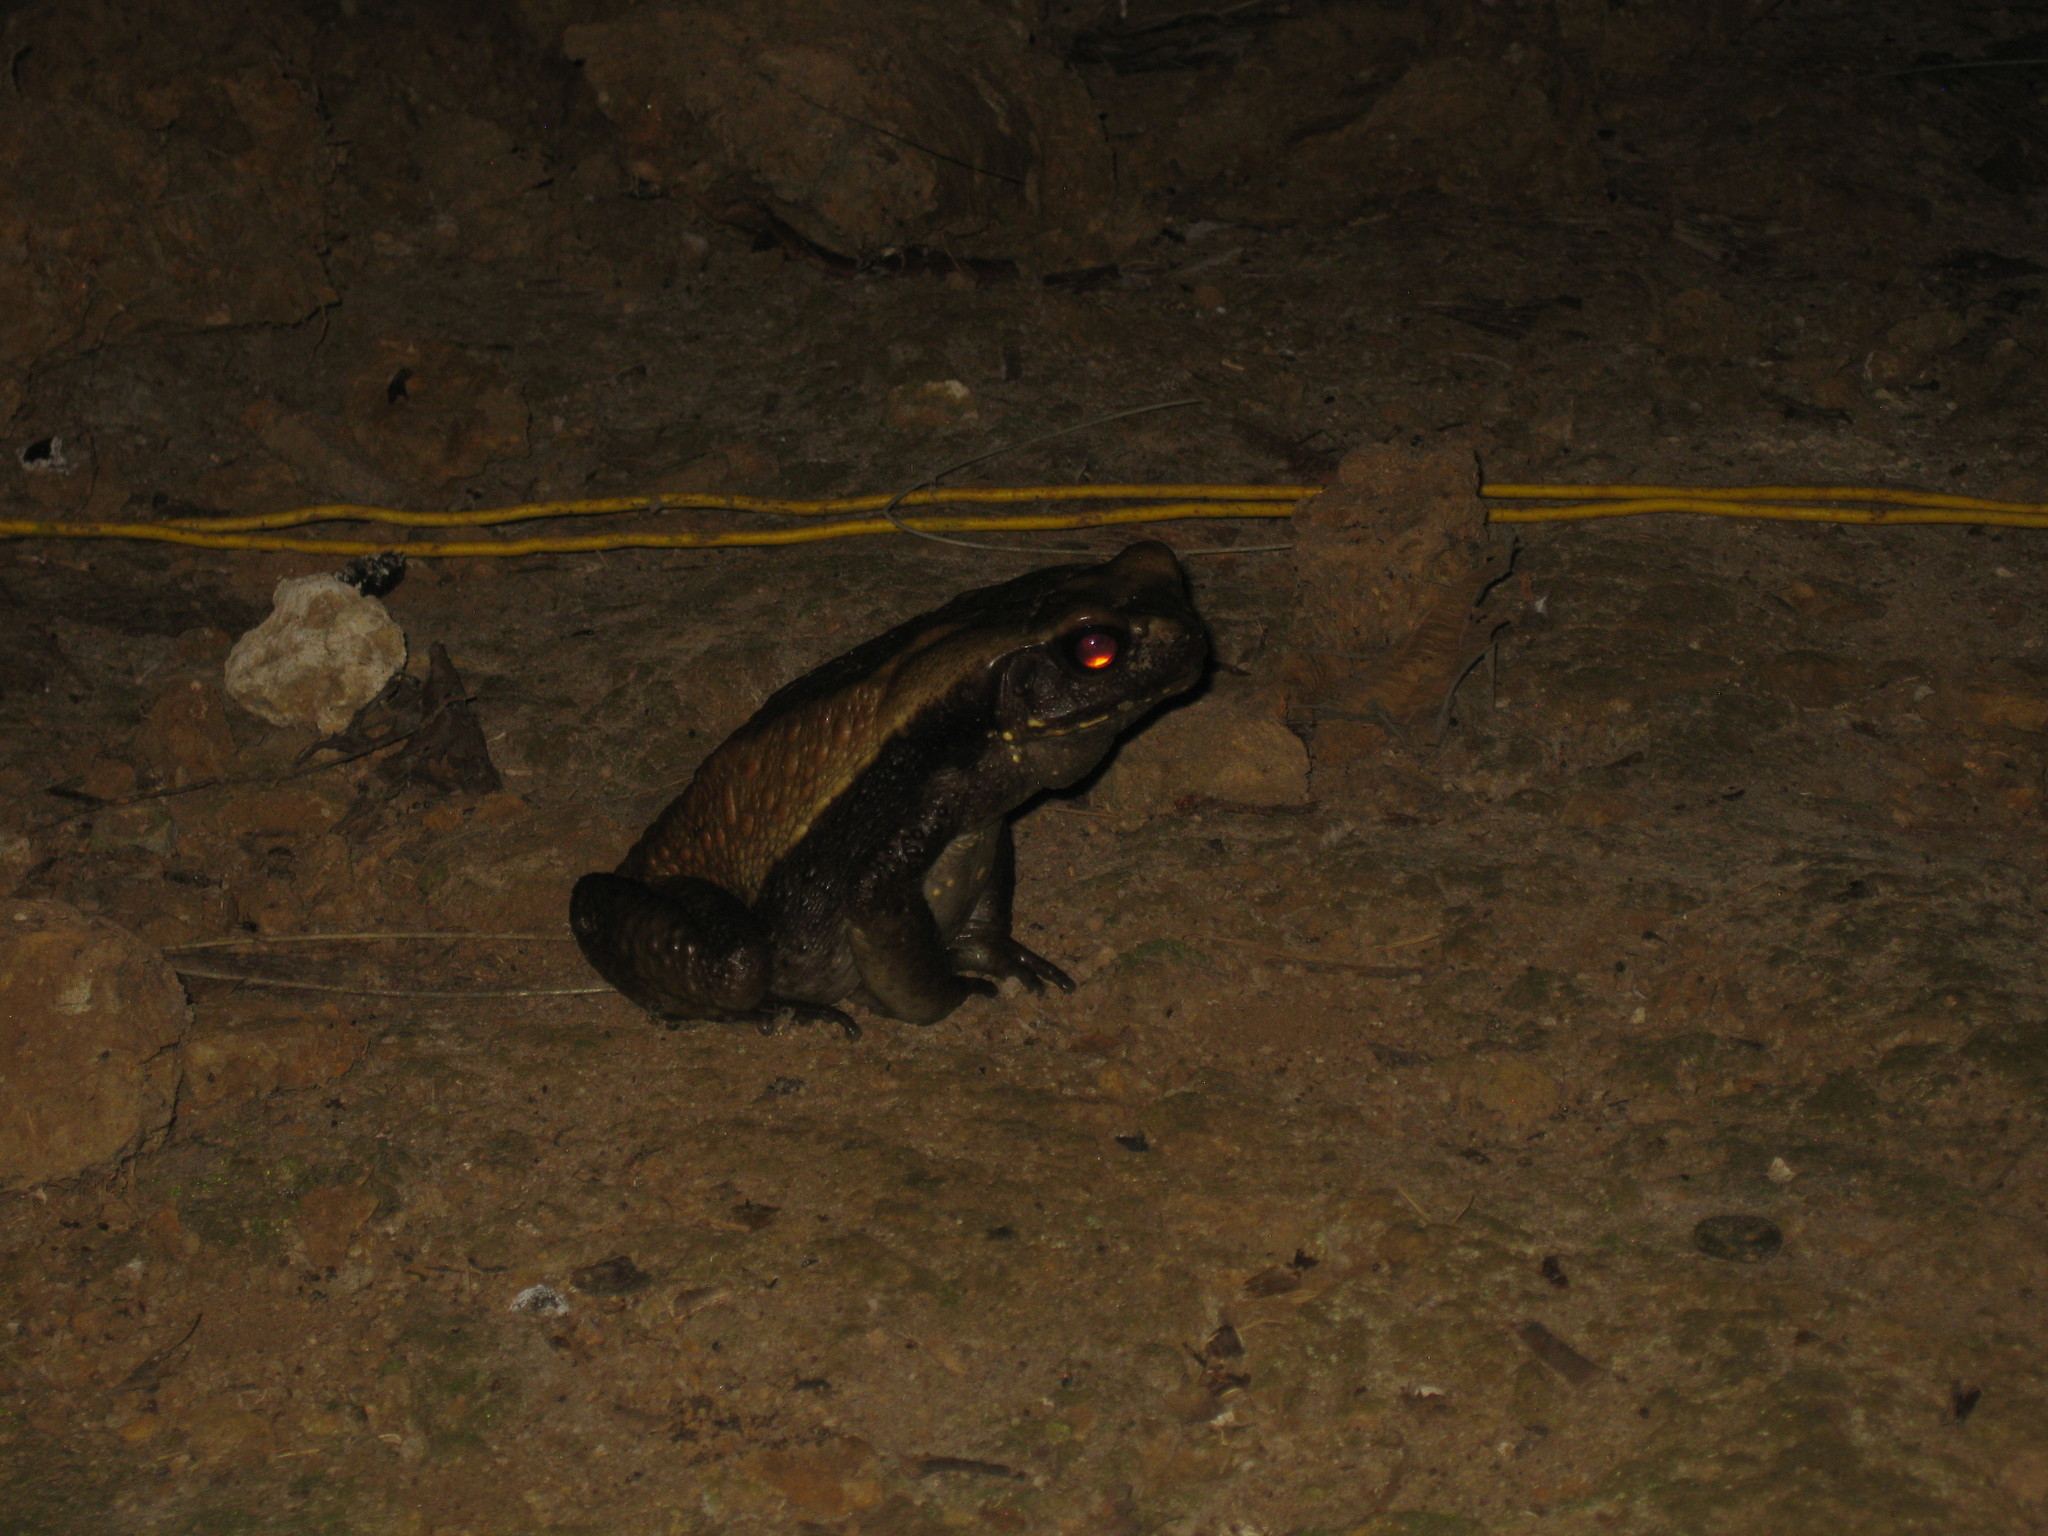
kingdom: Animalia
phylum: Chordata
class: Amphibia
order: Anura
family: Bufonidae
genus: Rhaebo
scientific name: Rhaebo guttatus
